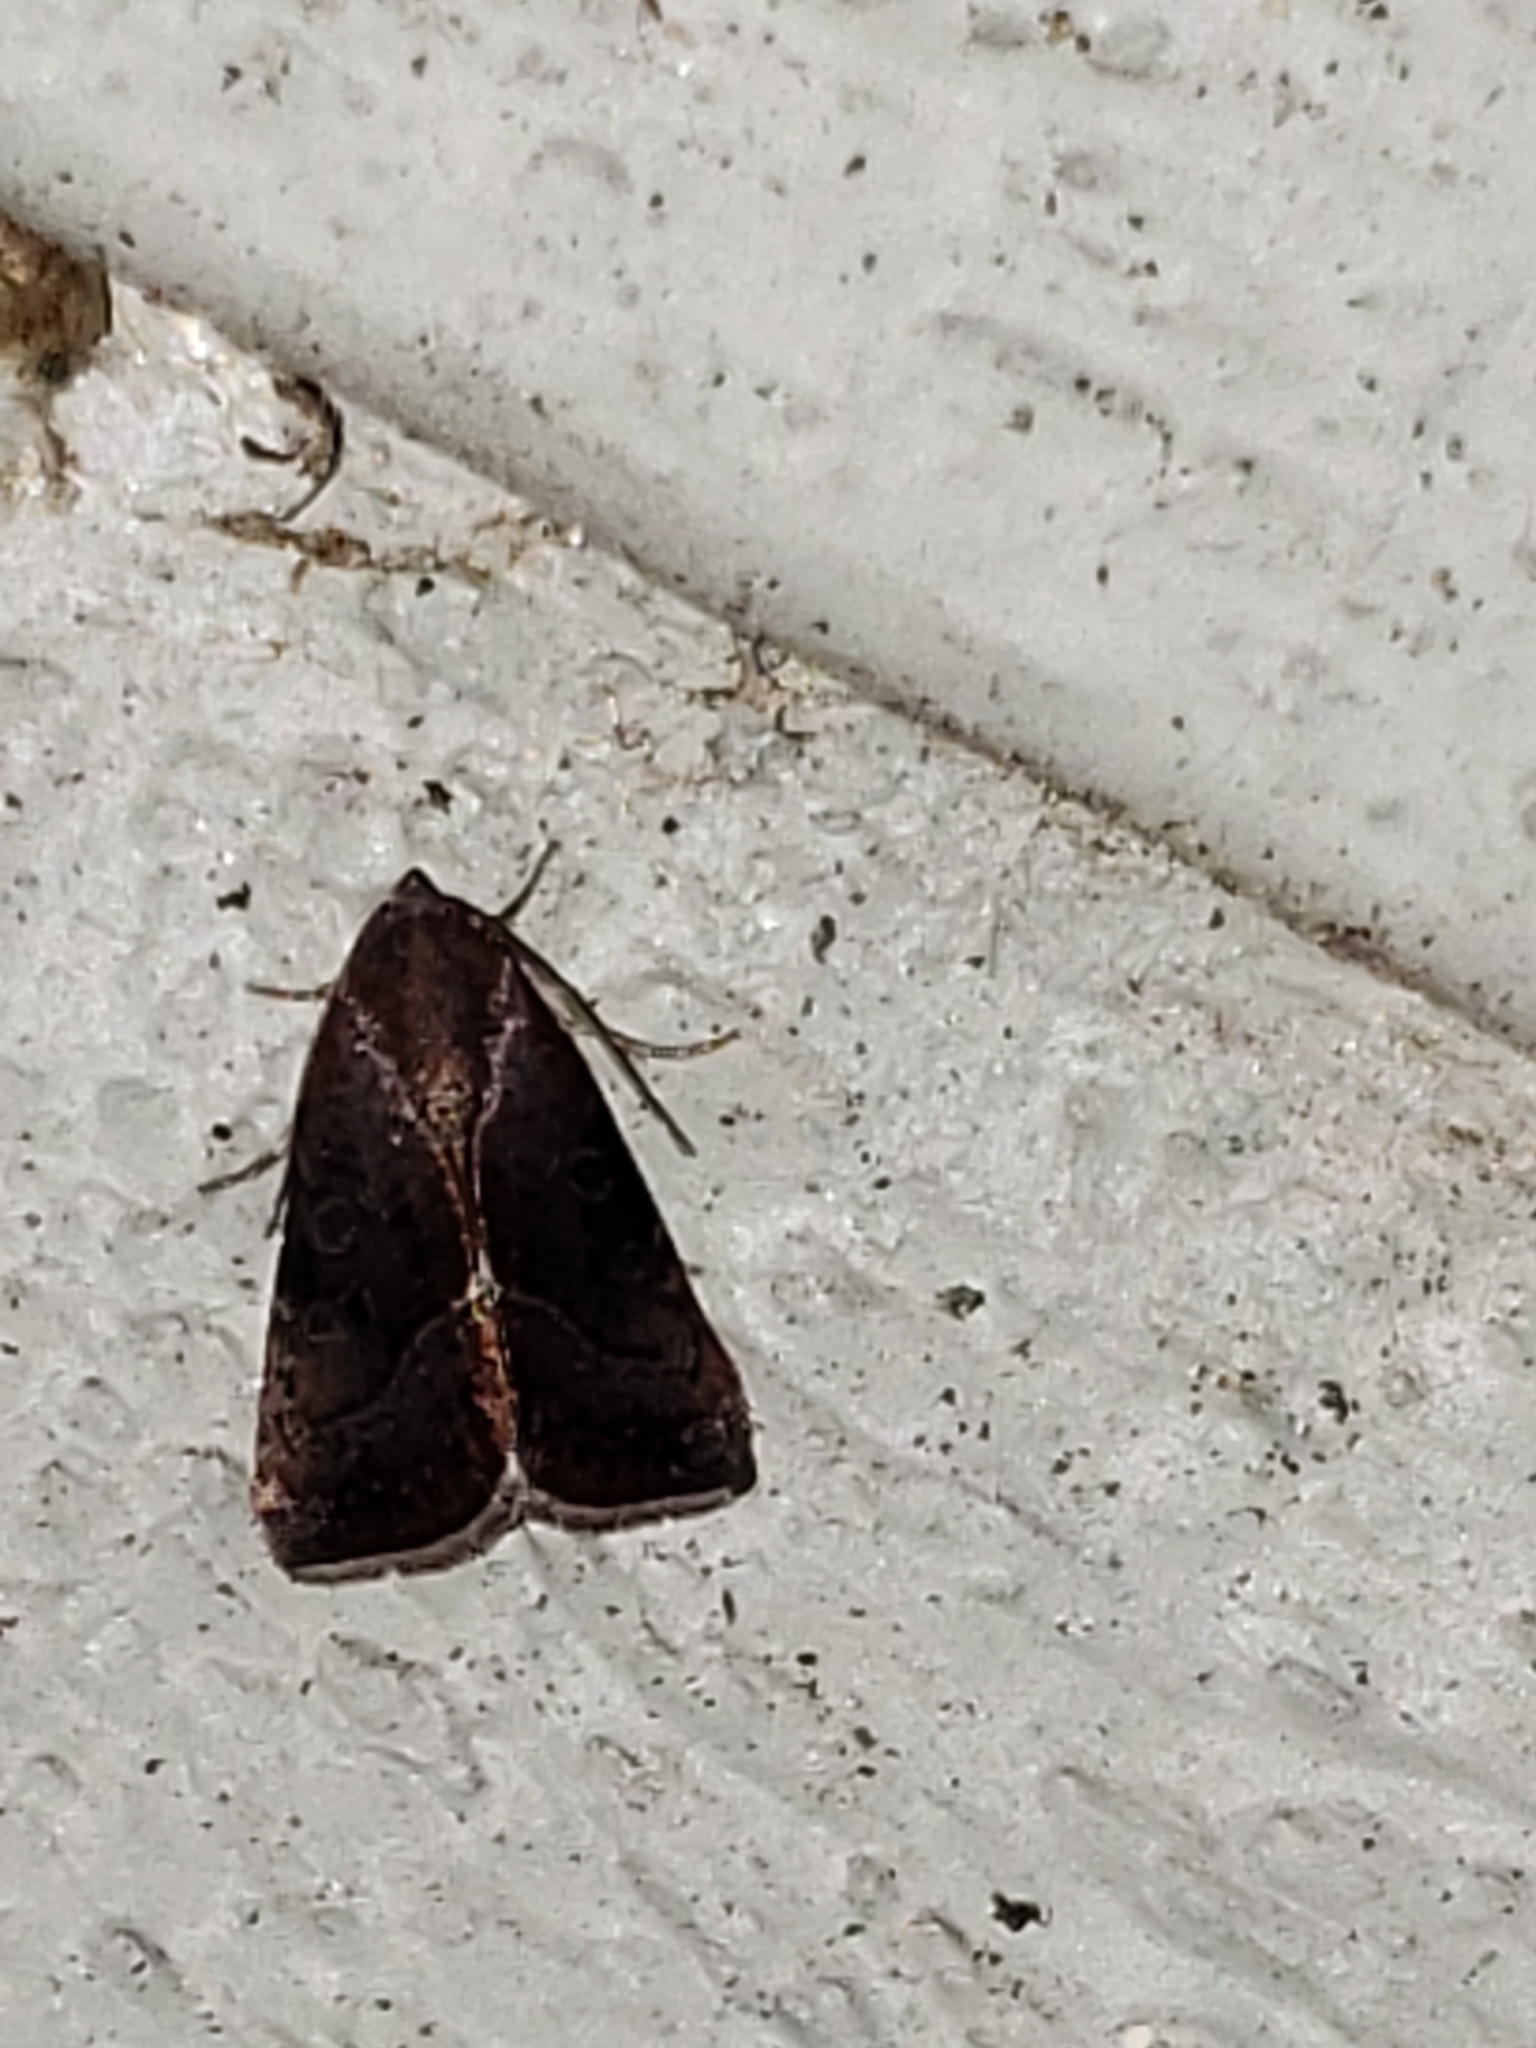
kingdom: Animalia
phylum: Arthropoda
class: Insecta
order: Lepidoptera
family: Noctuidae
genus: Galgula
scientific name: Galgula partita
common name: Wedgeling
